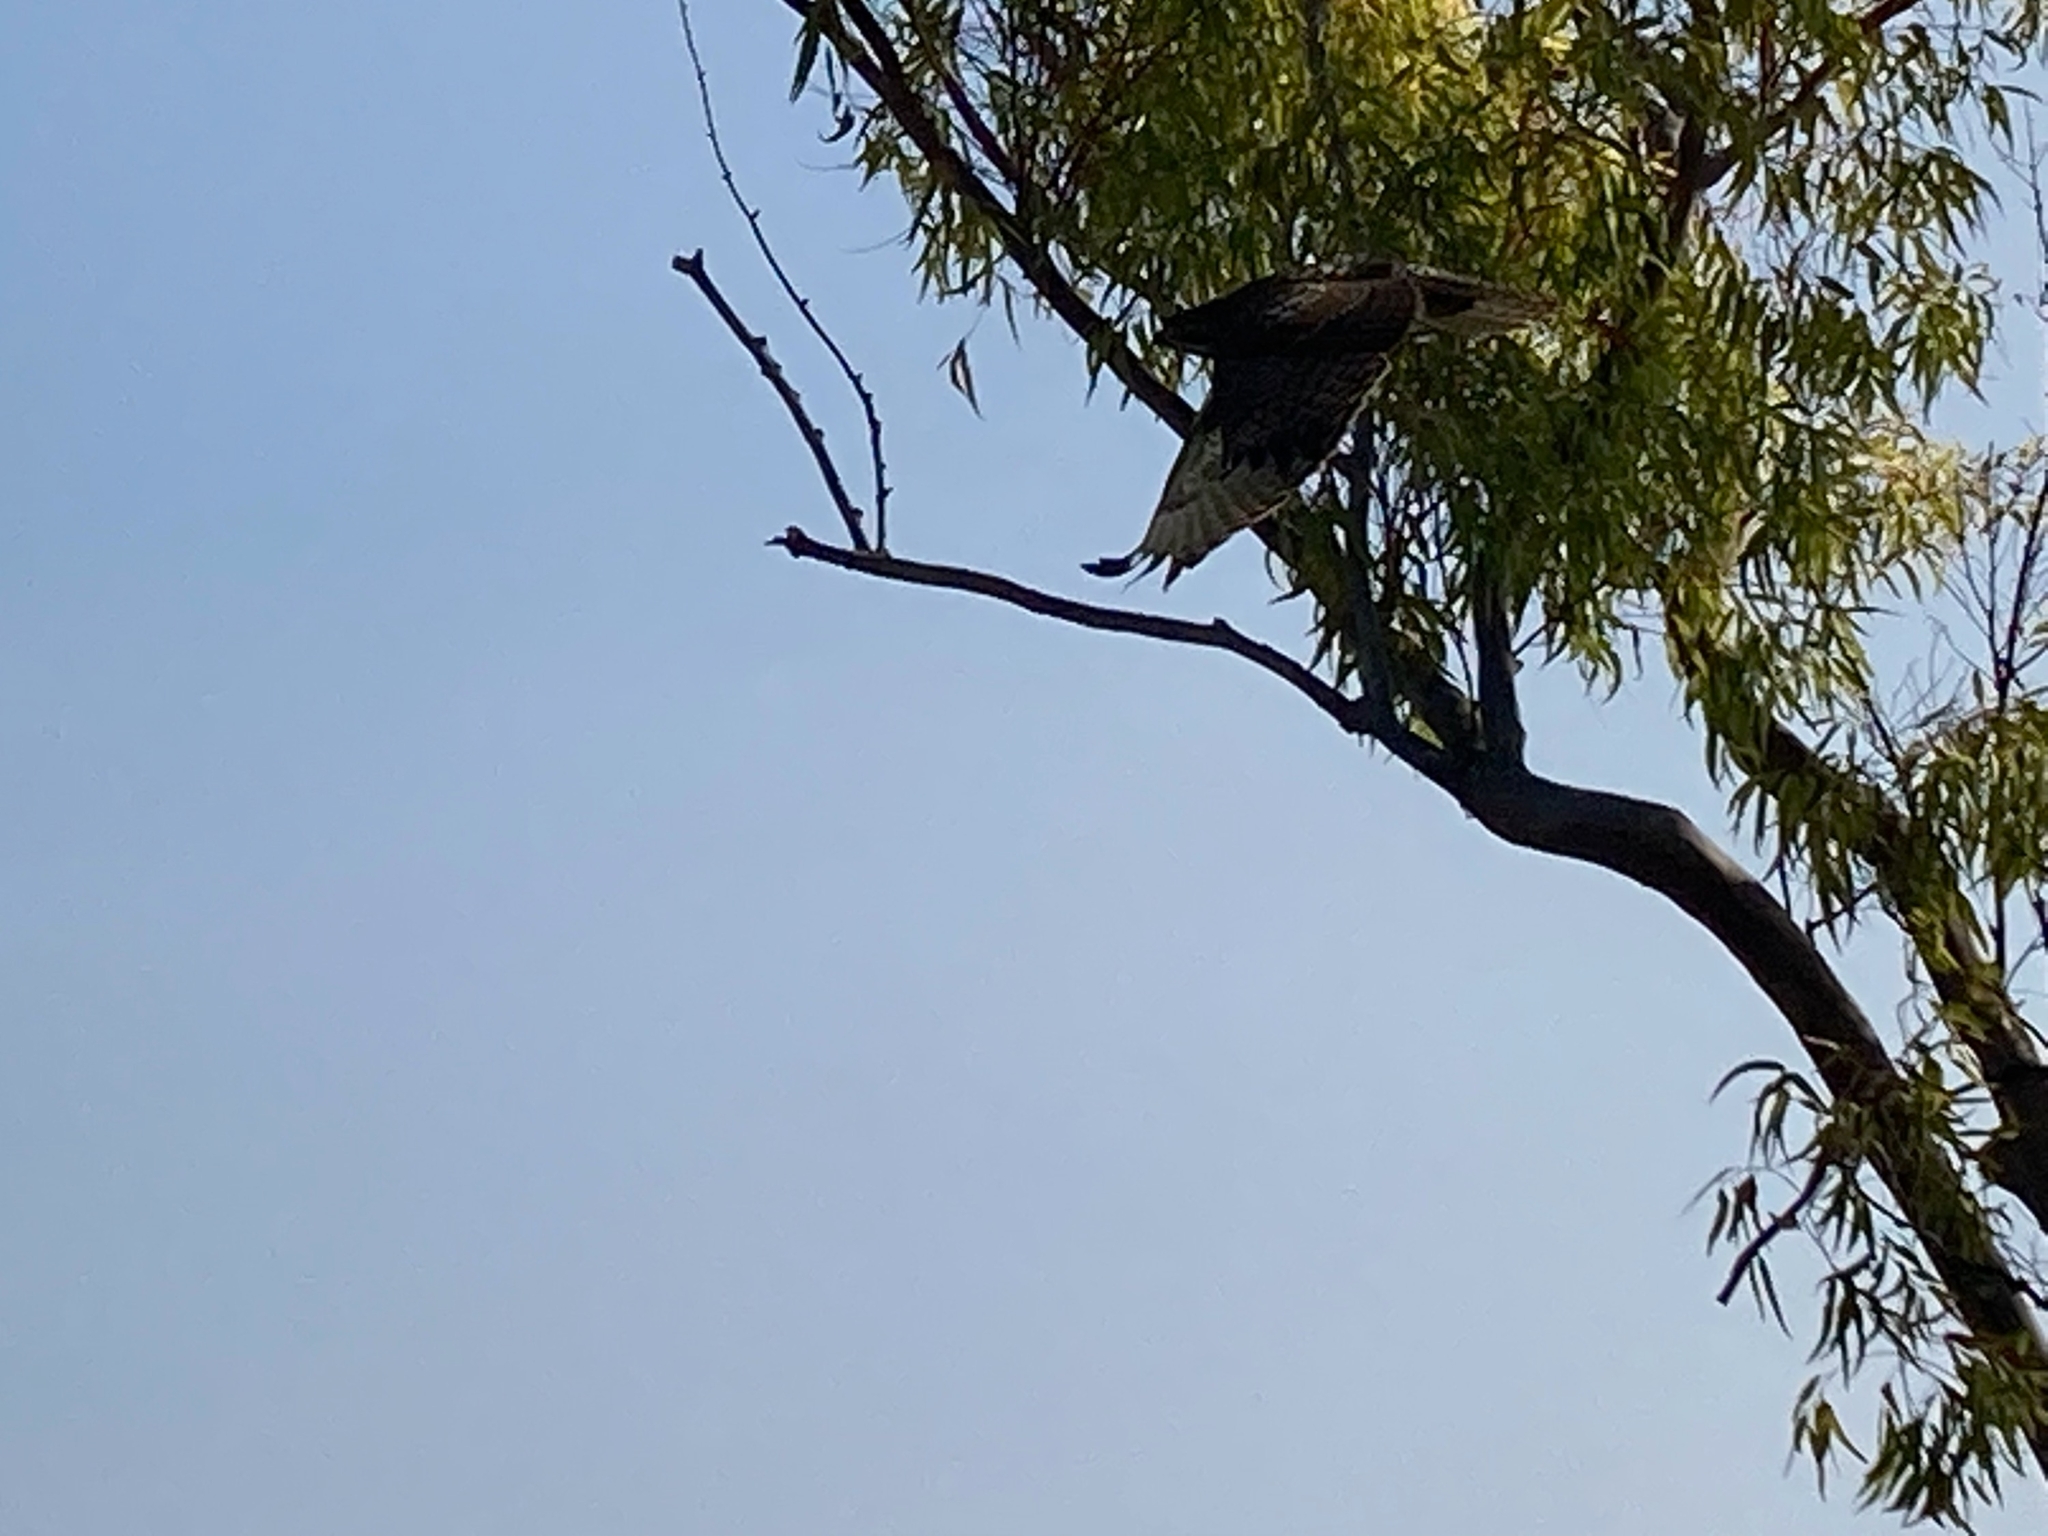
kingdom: Animalia
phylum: Chordata
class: Aves
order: Accipitriformes
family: Accipitridae
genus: Buteo
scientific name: Buteo jamaicensis
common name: Red-tailed hawk
